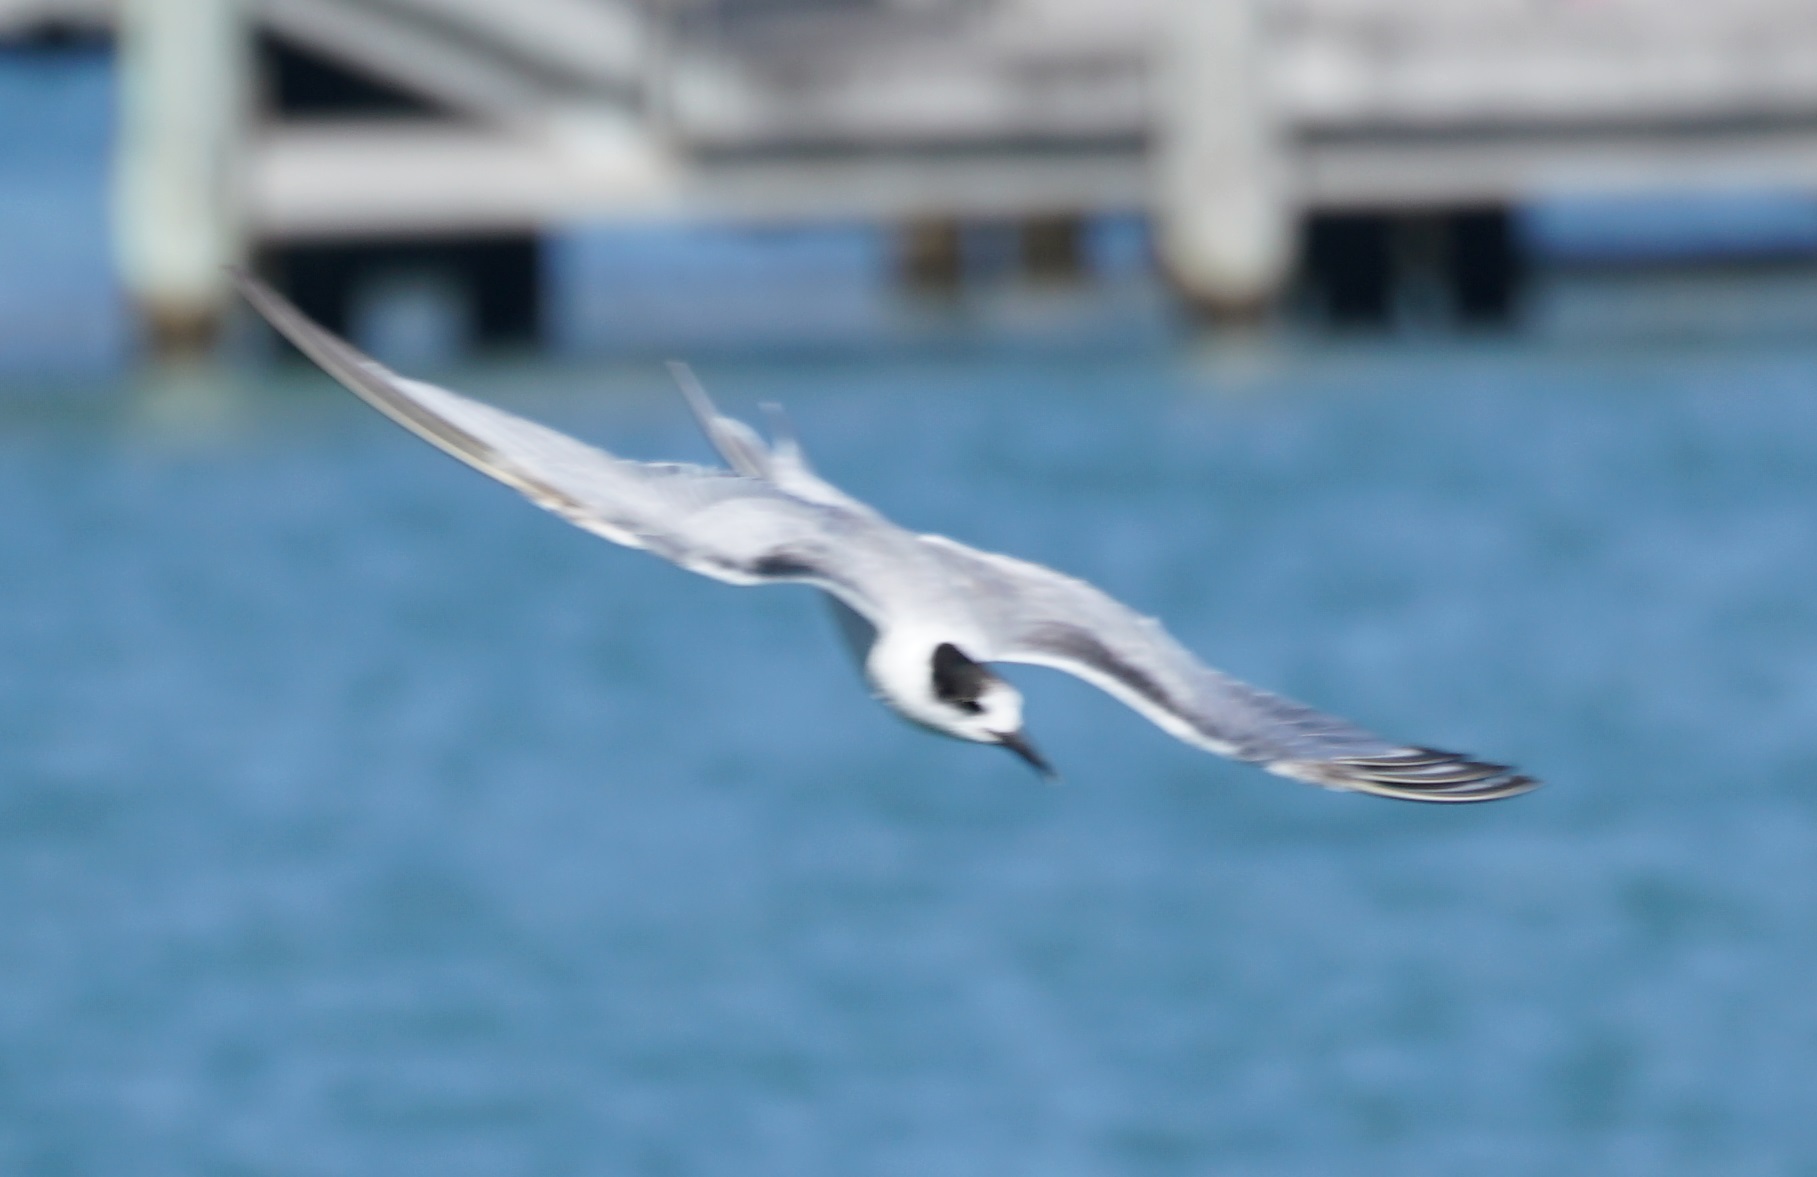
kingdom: Animalia
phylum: Chordata
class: Aves
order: Charadriiformes
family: Laridae
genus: Sterna
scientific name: Sterna hirundo
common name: Common tern
